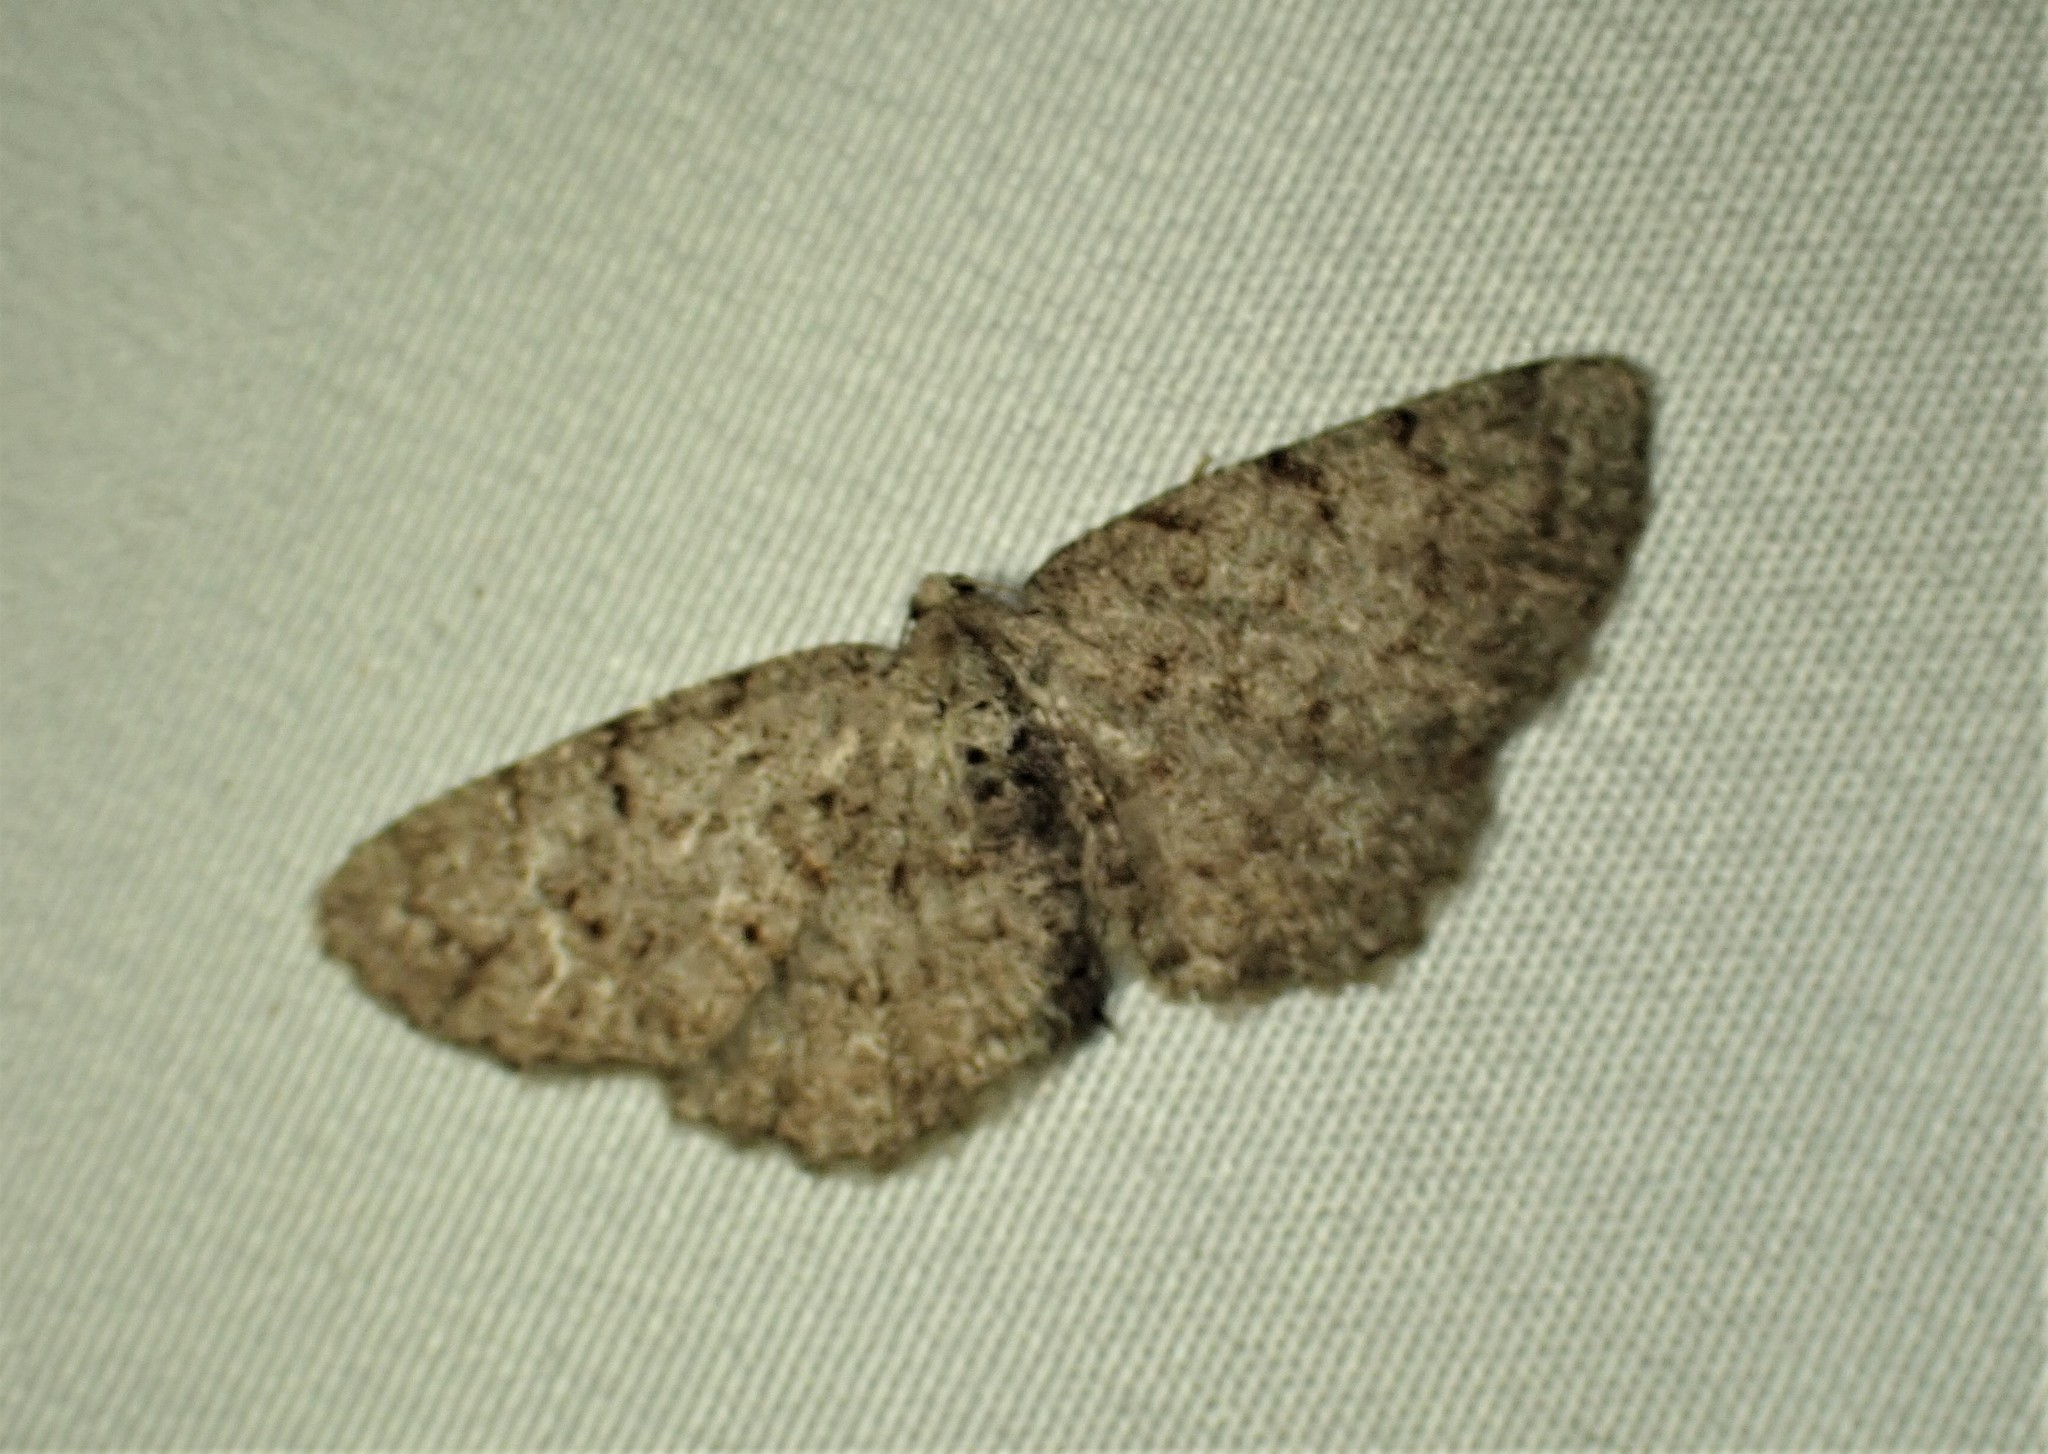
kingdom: Animalia
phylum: Arthropoda
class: Insecta
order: Lepidoptera
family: Geometridae
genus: Aethalura
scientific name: Aethalura intertexta
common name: Four-barred gray
